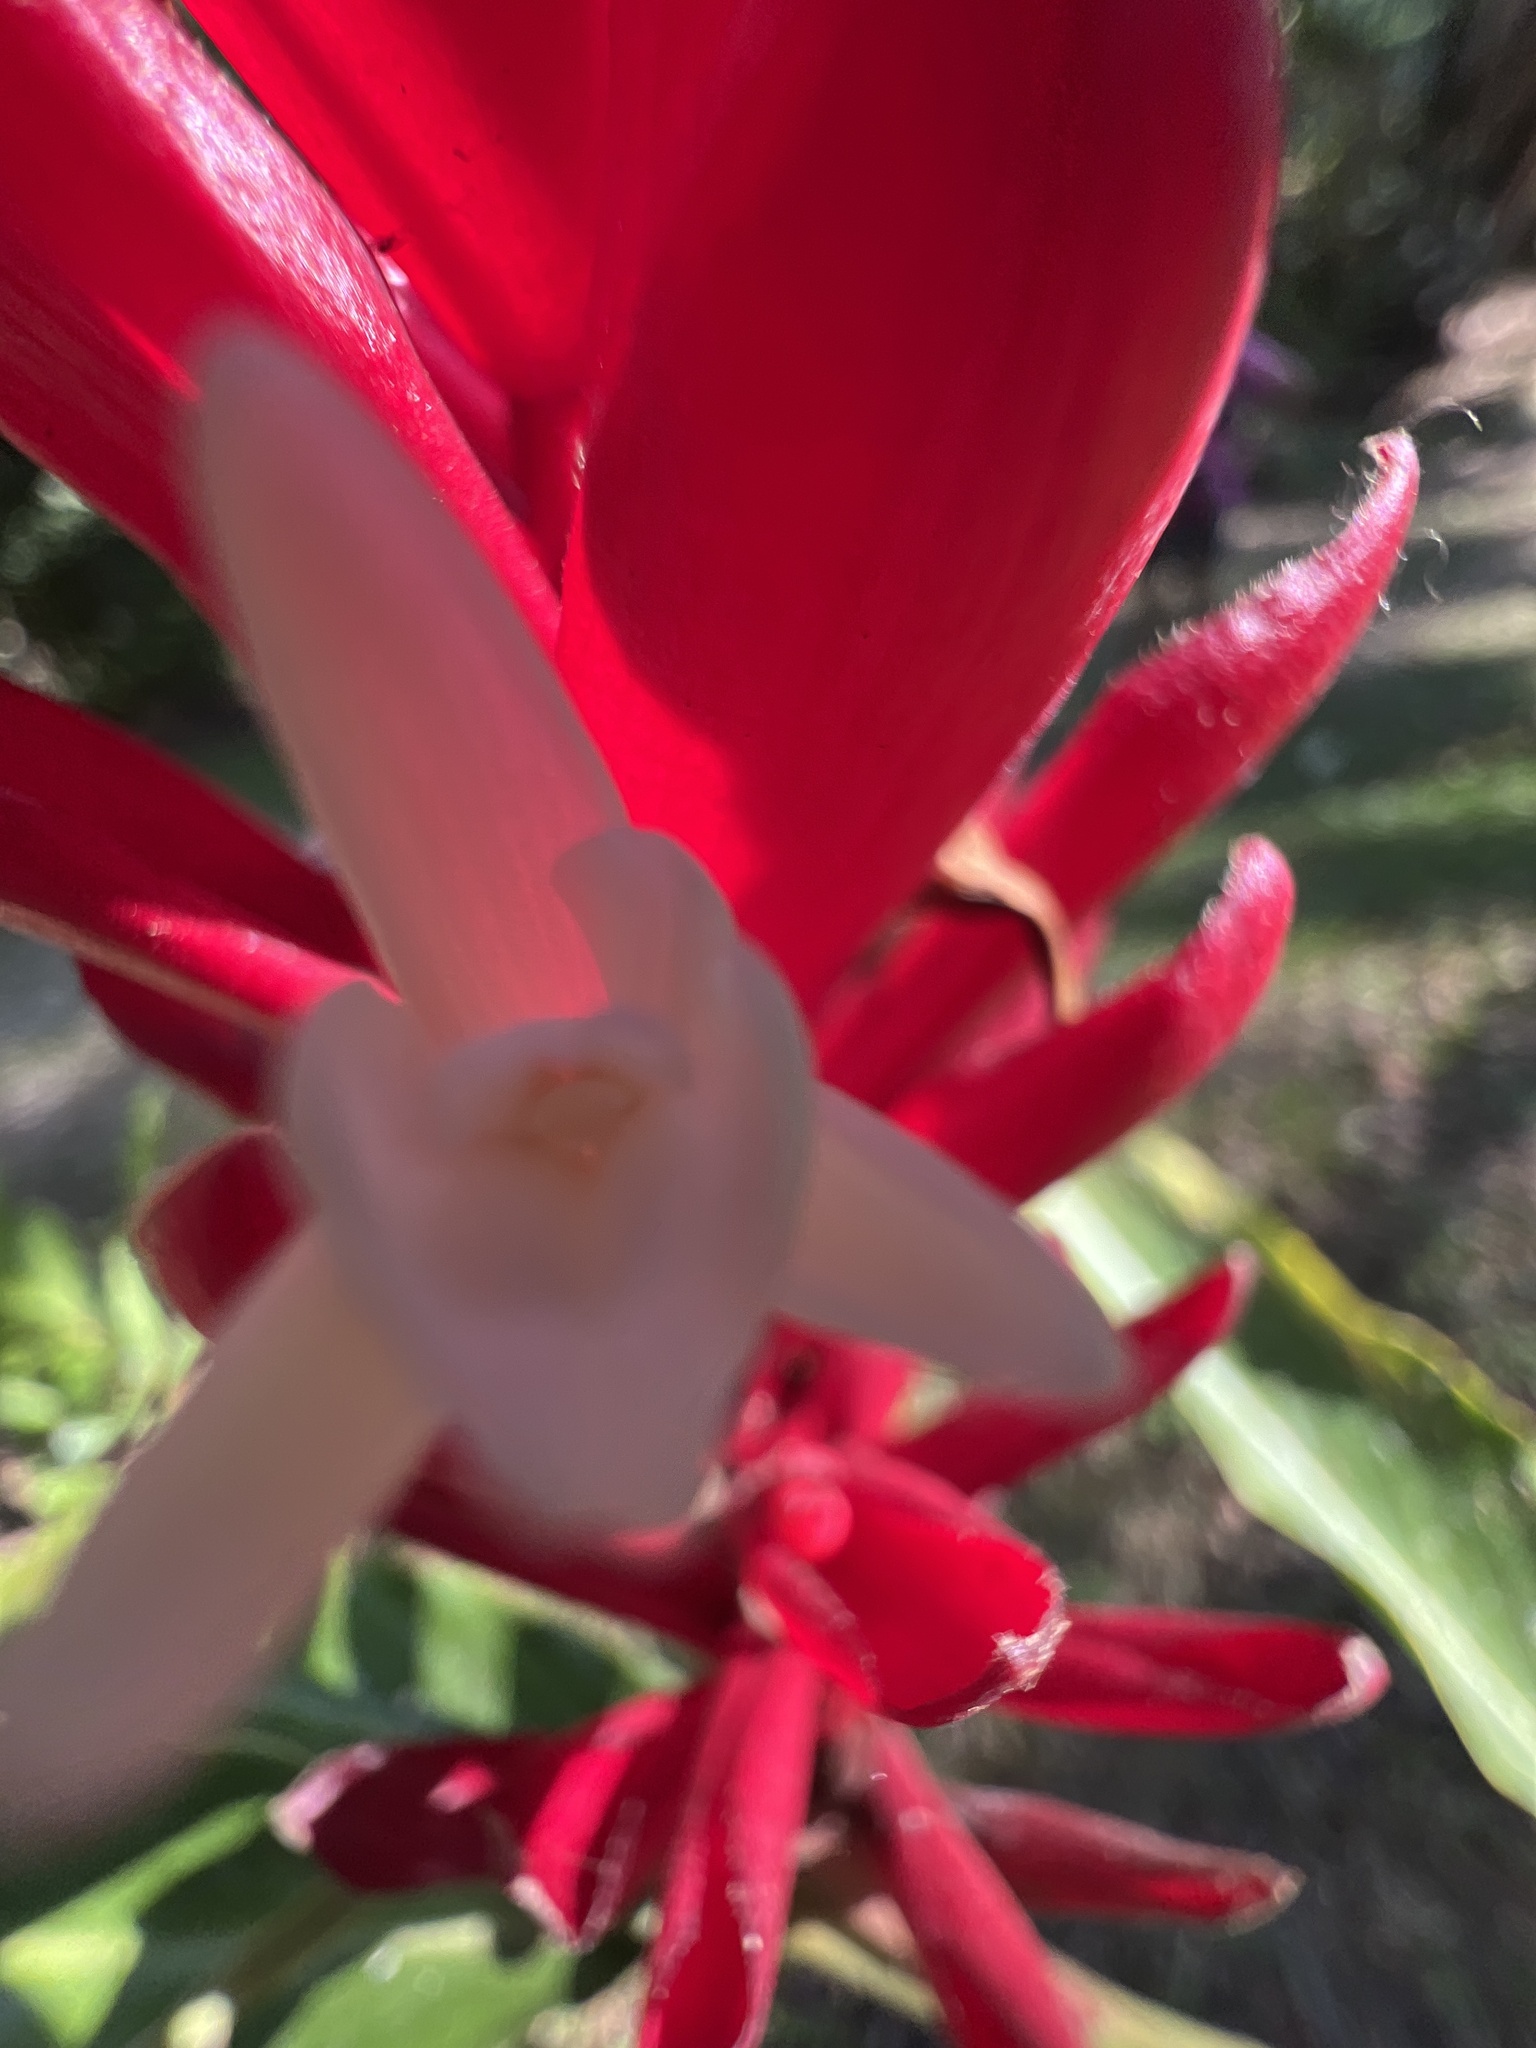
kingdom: Plantae
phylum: Tracheophyta
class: Liliopsida
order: Zingiberales
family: Zingiberaceae
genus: Alpinia
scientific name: Alpinia purpurata
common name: Red ginger
